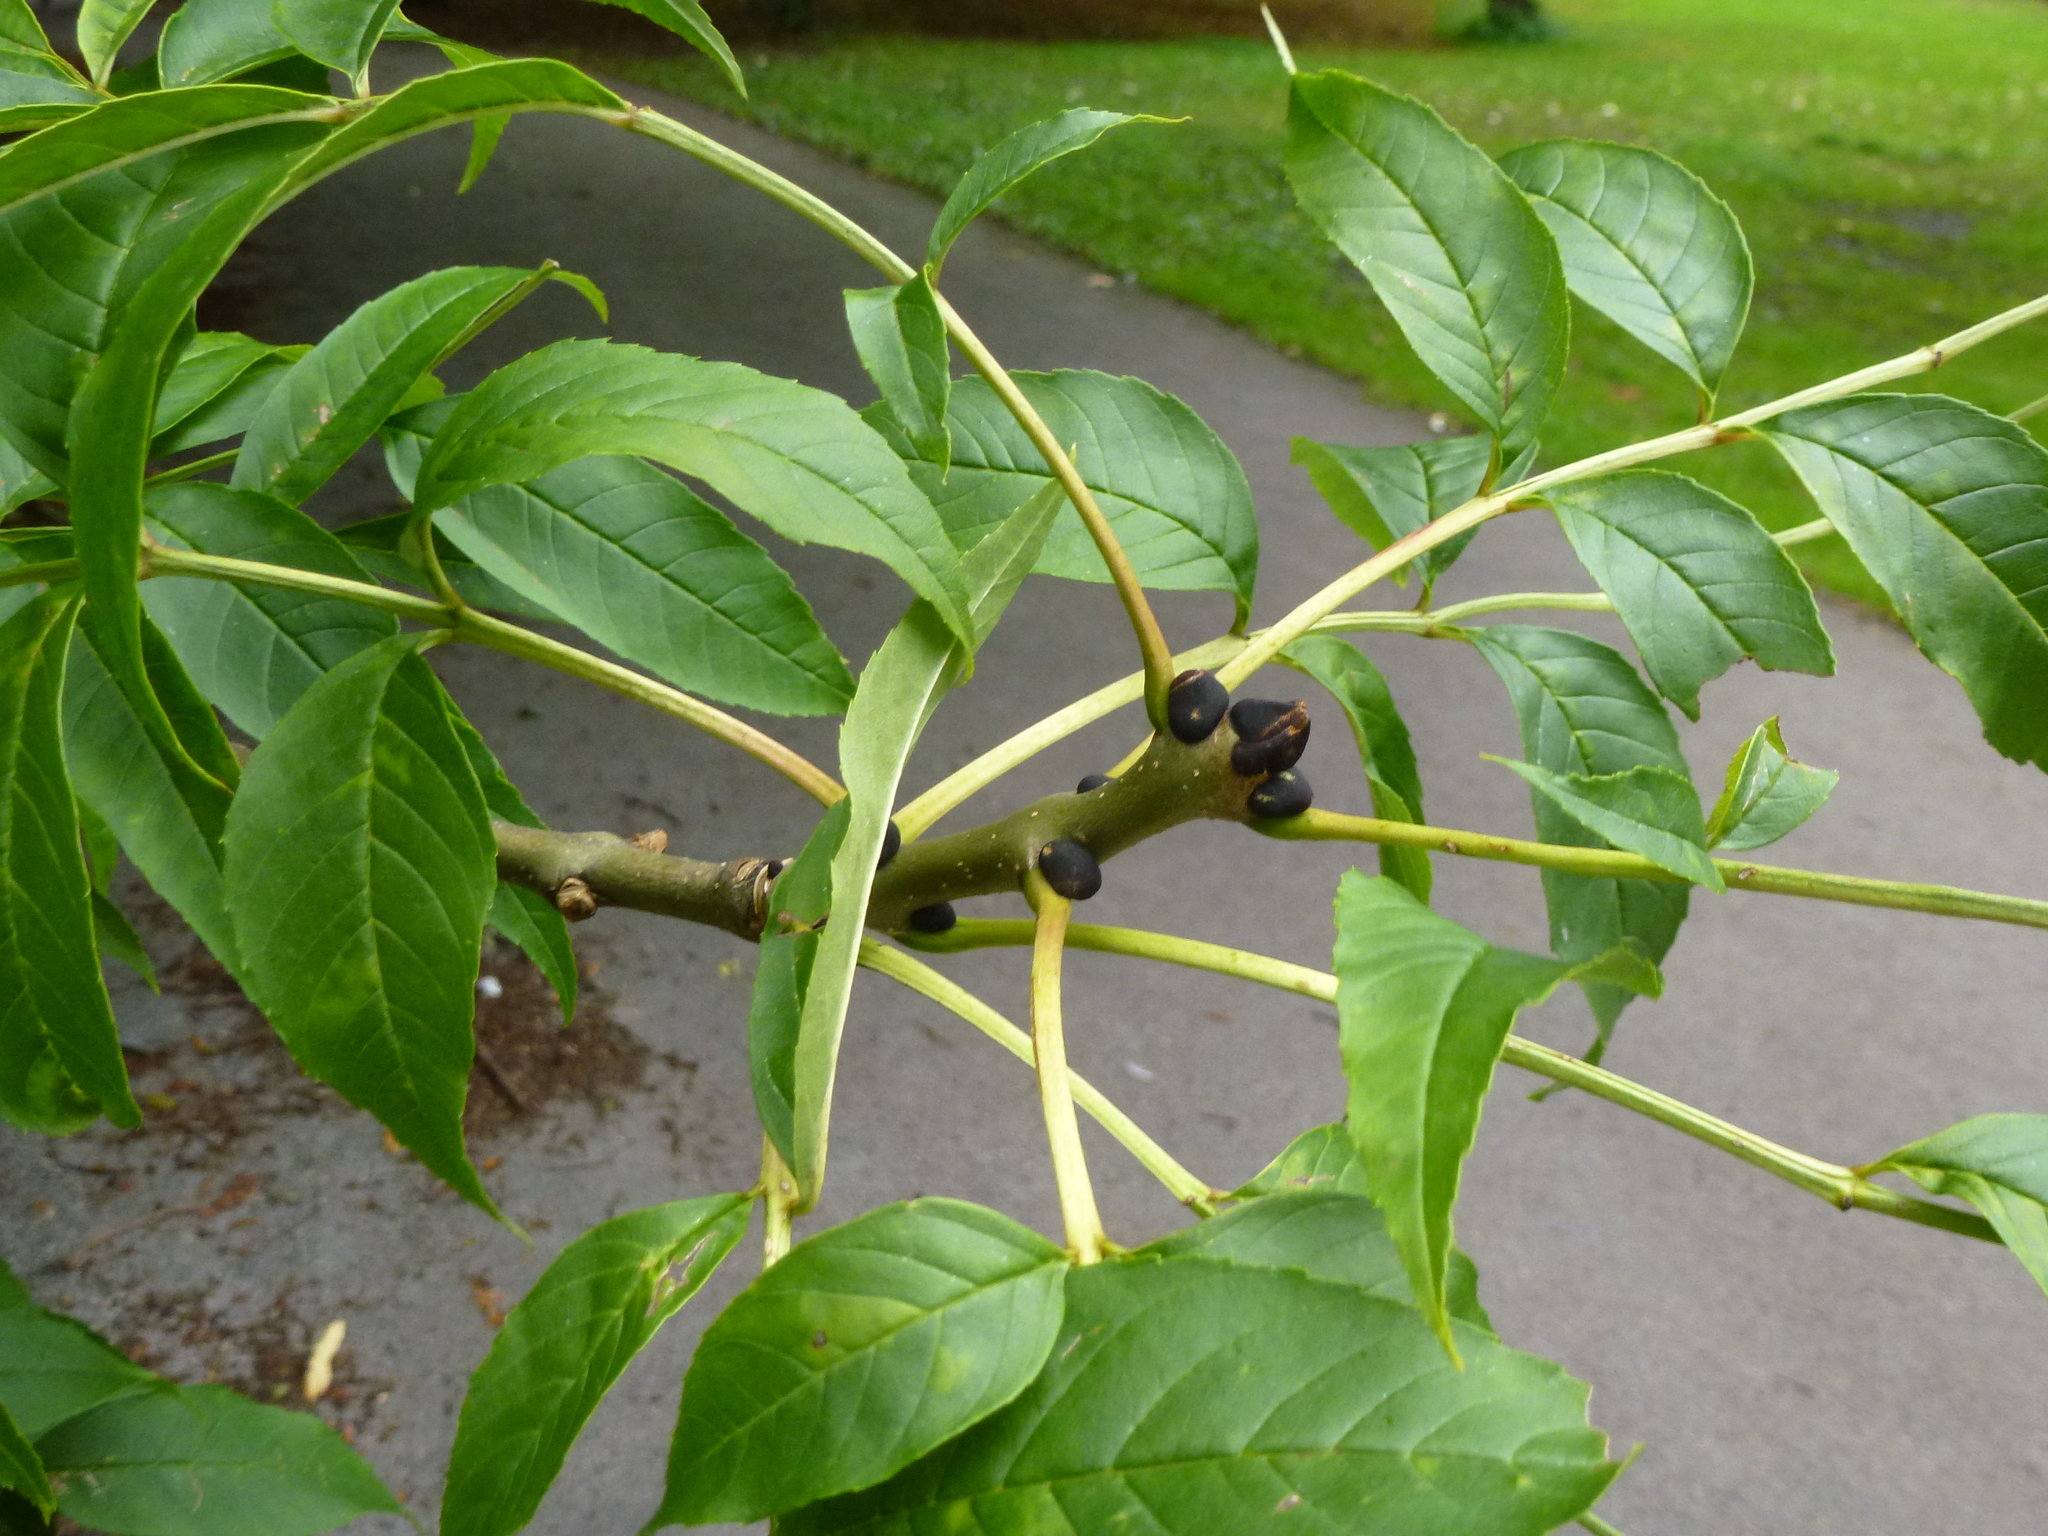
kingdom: Plantae
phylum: Tracheophyta
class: Magnoliopsida
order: Lamiales
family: Oleaceae
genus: Fraxinus
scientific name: Fraxinus excelsior
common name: European ash
